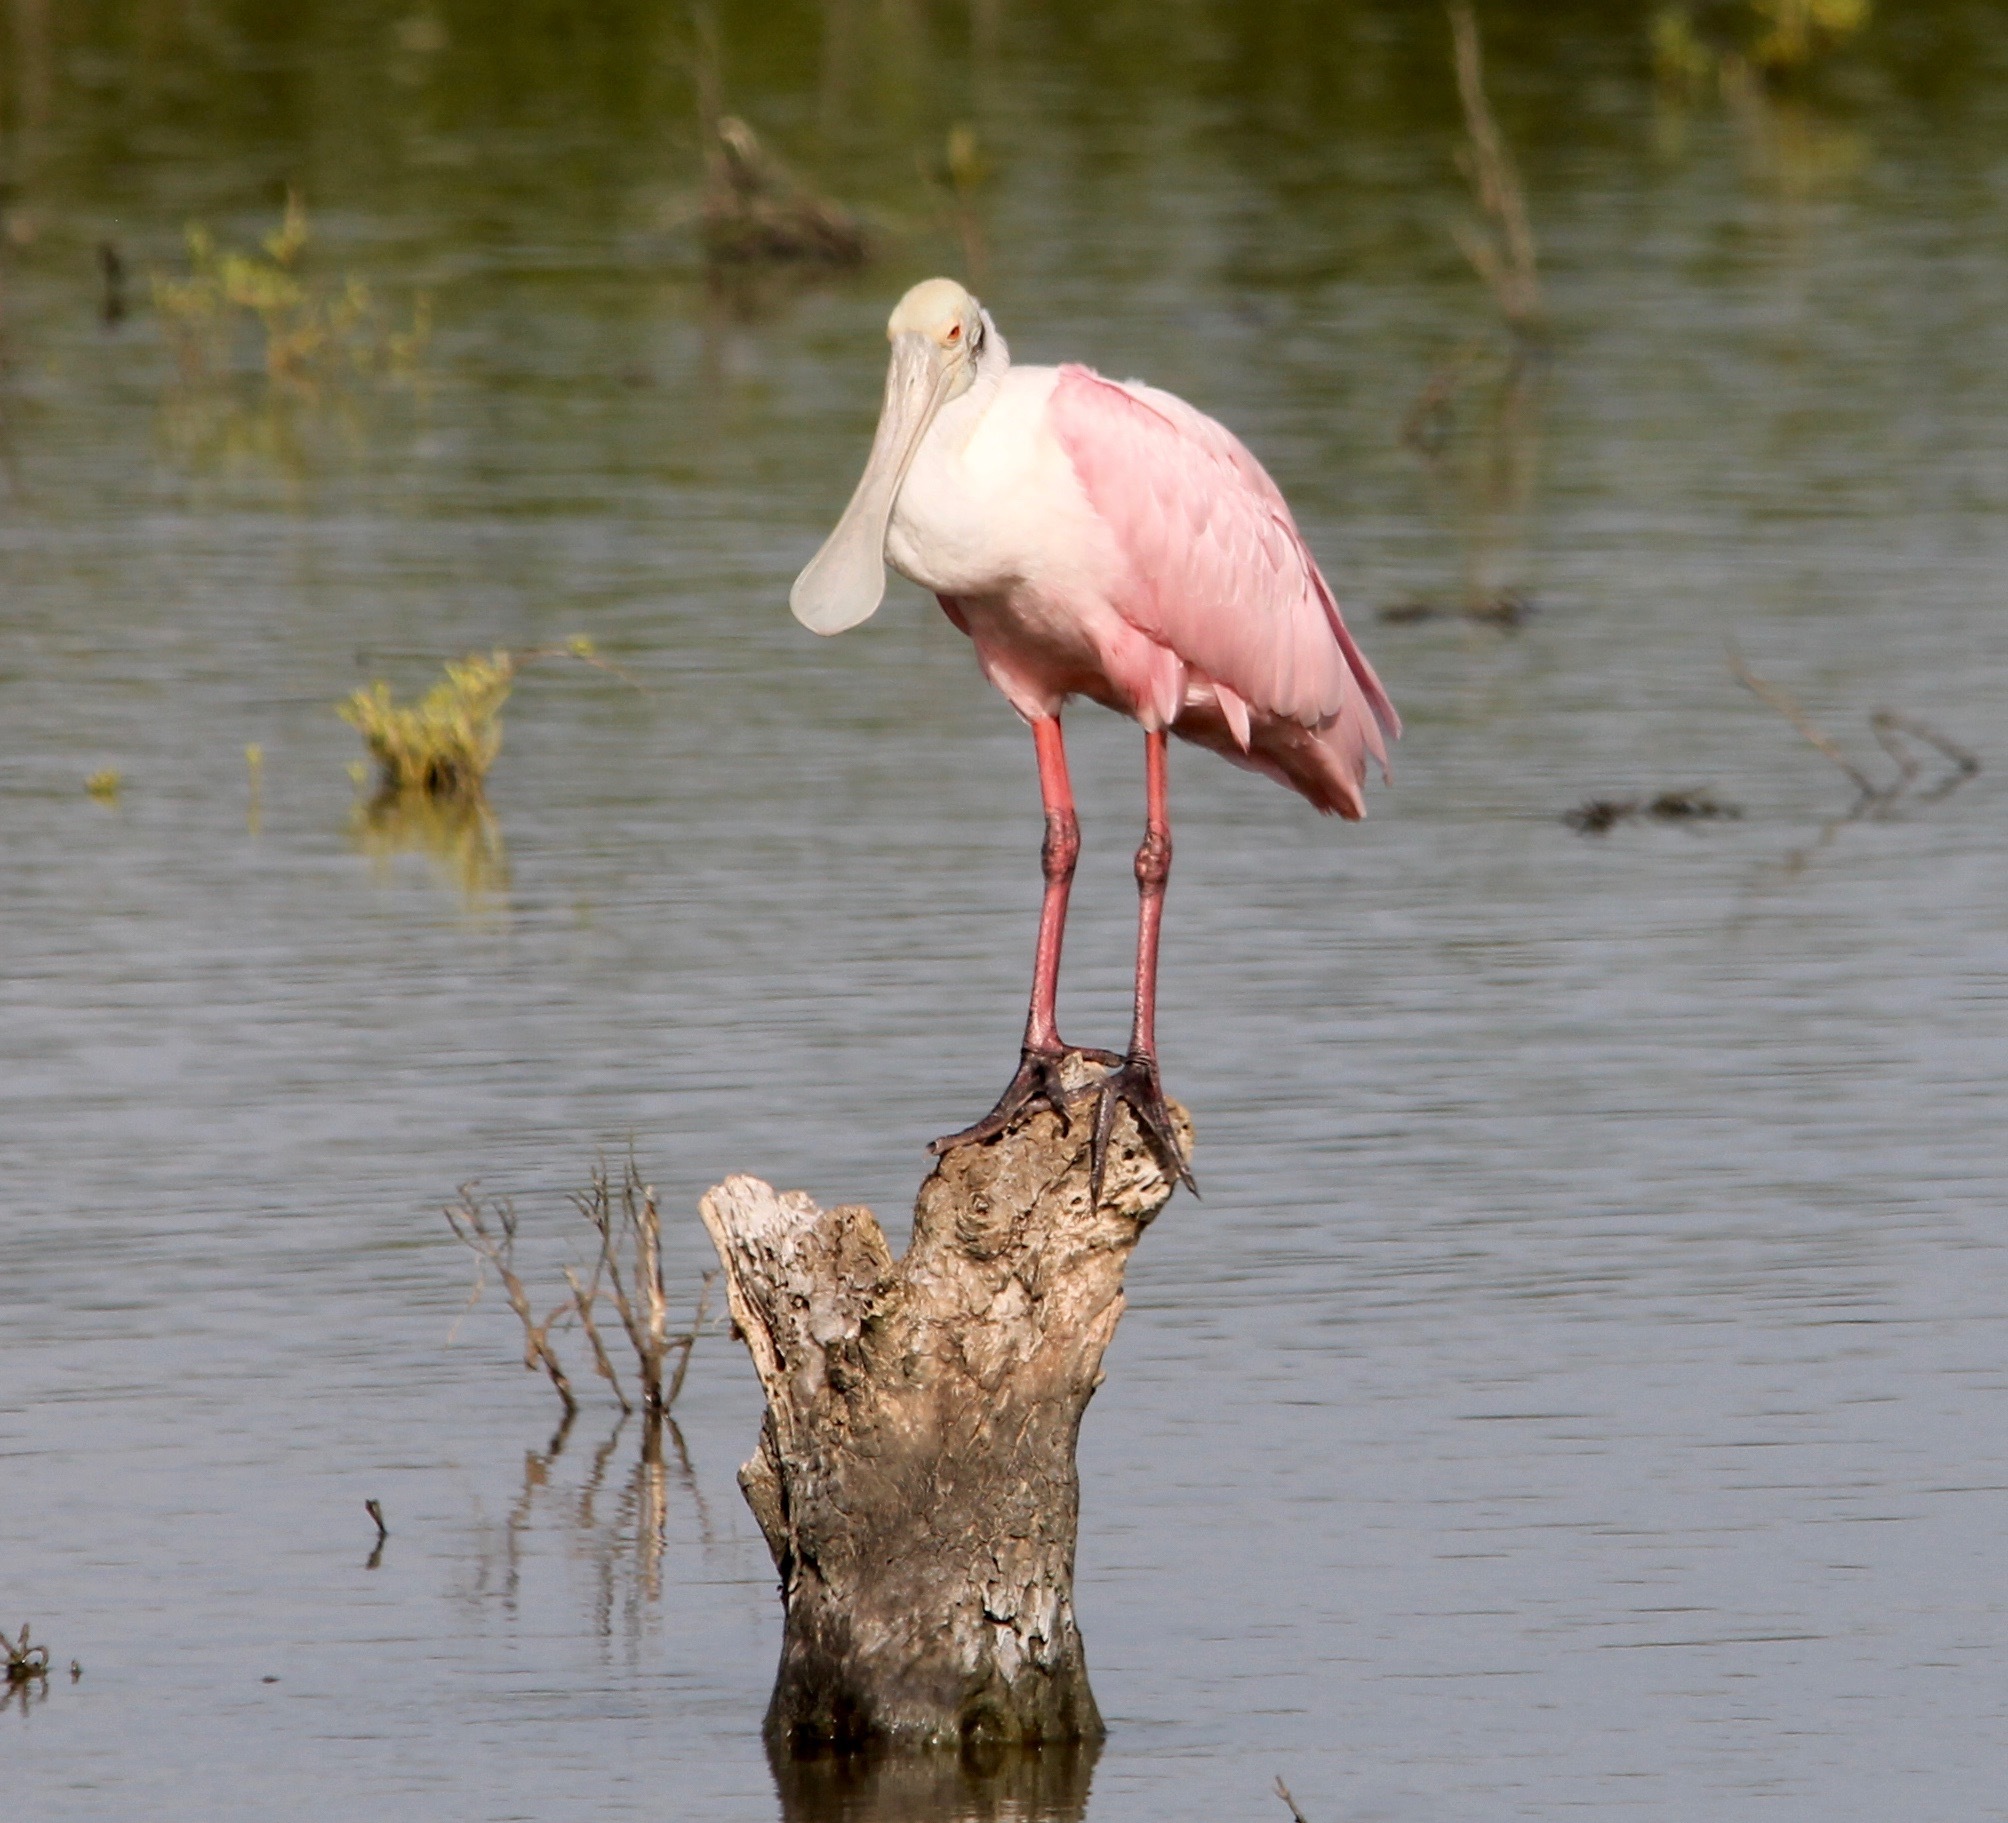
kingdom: Animalia
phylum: Chordata
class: Aves
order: Pelecaniformes
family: Threskiornithidae
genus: Platalea
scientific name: Platalea ajaja
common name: Roseate spoonbill
